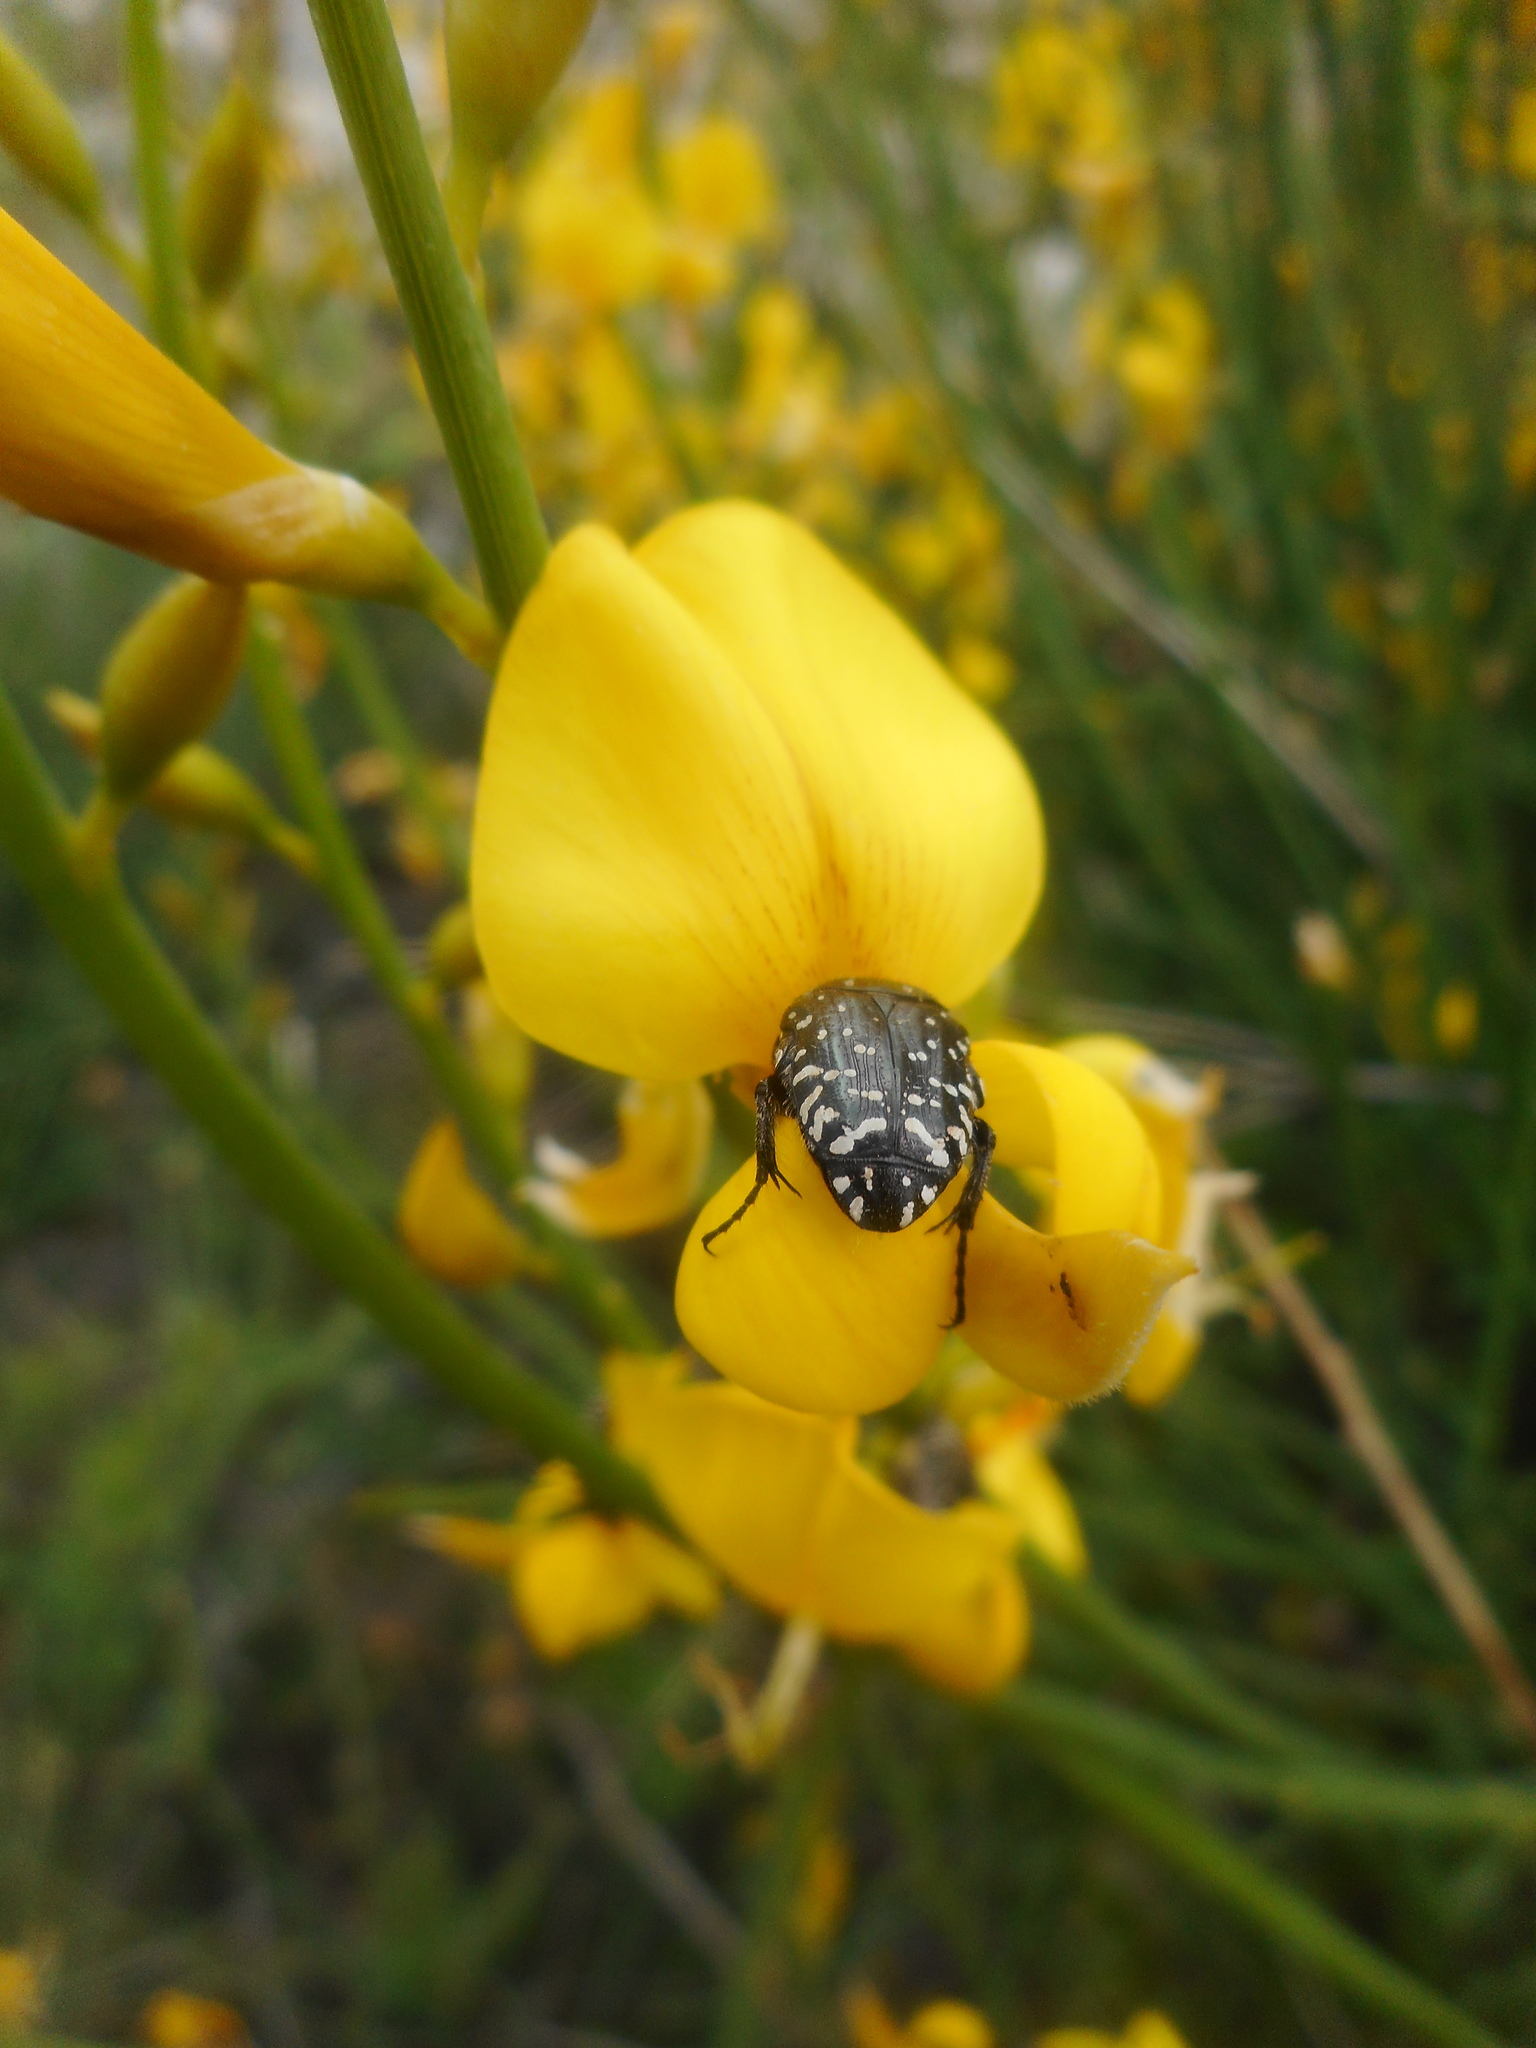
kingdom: Plantae
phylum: Tracheophyta
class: Magnoliopsida
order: Fabales
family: Fabaceae
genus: Spartium
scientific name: Spartium junceum
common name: Spanish broom
